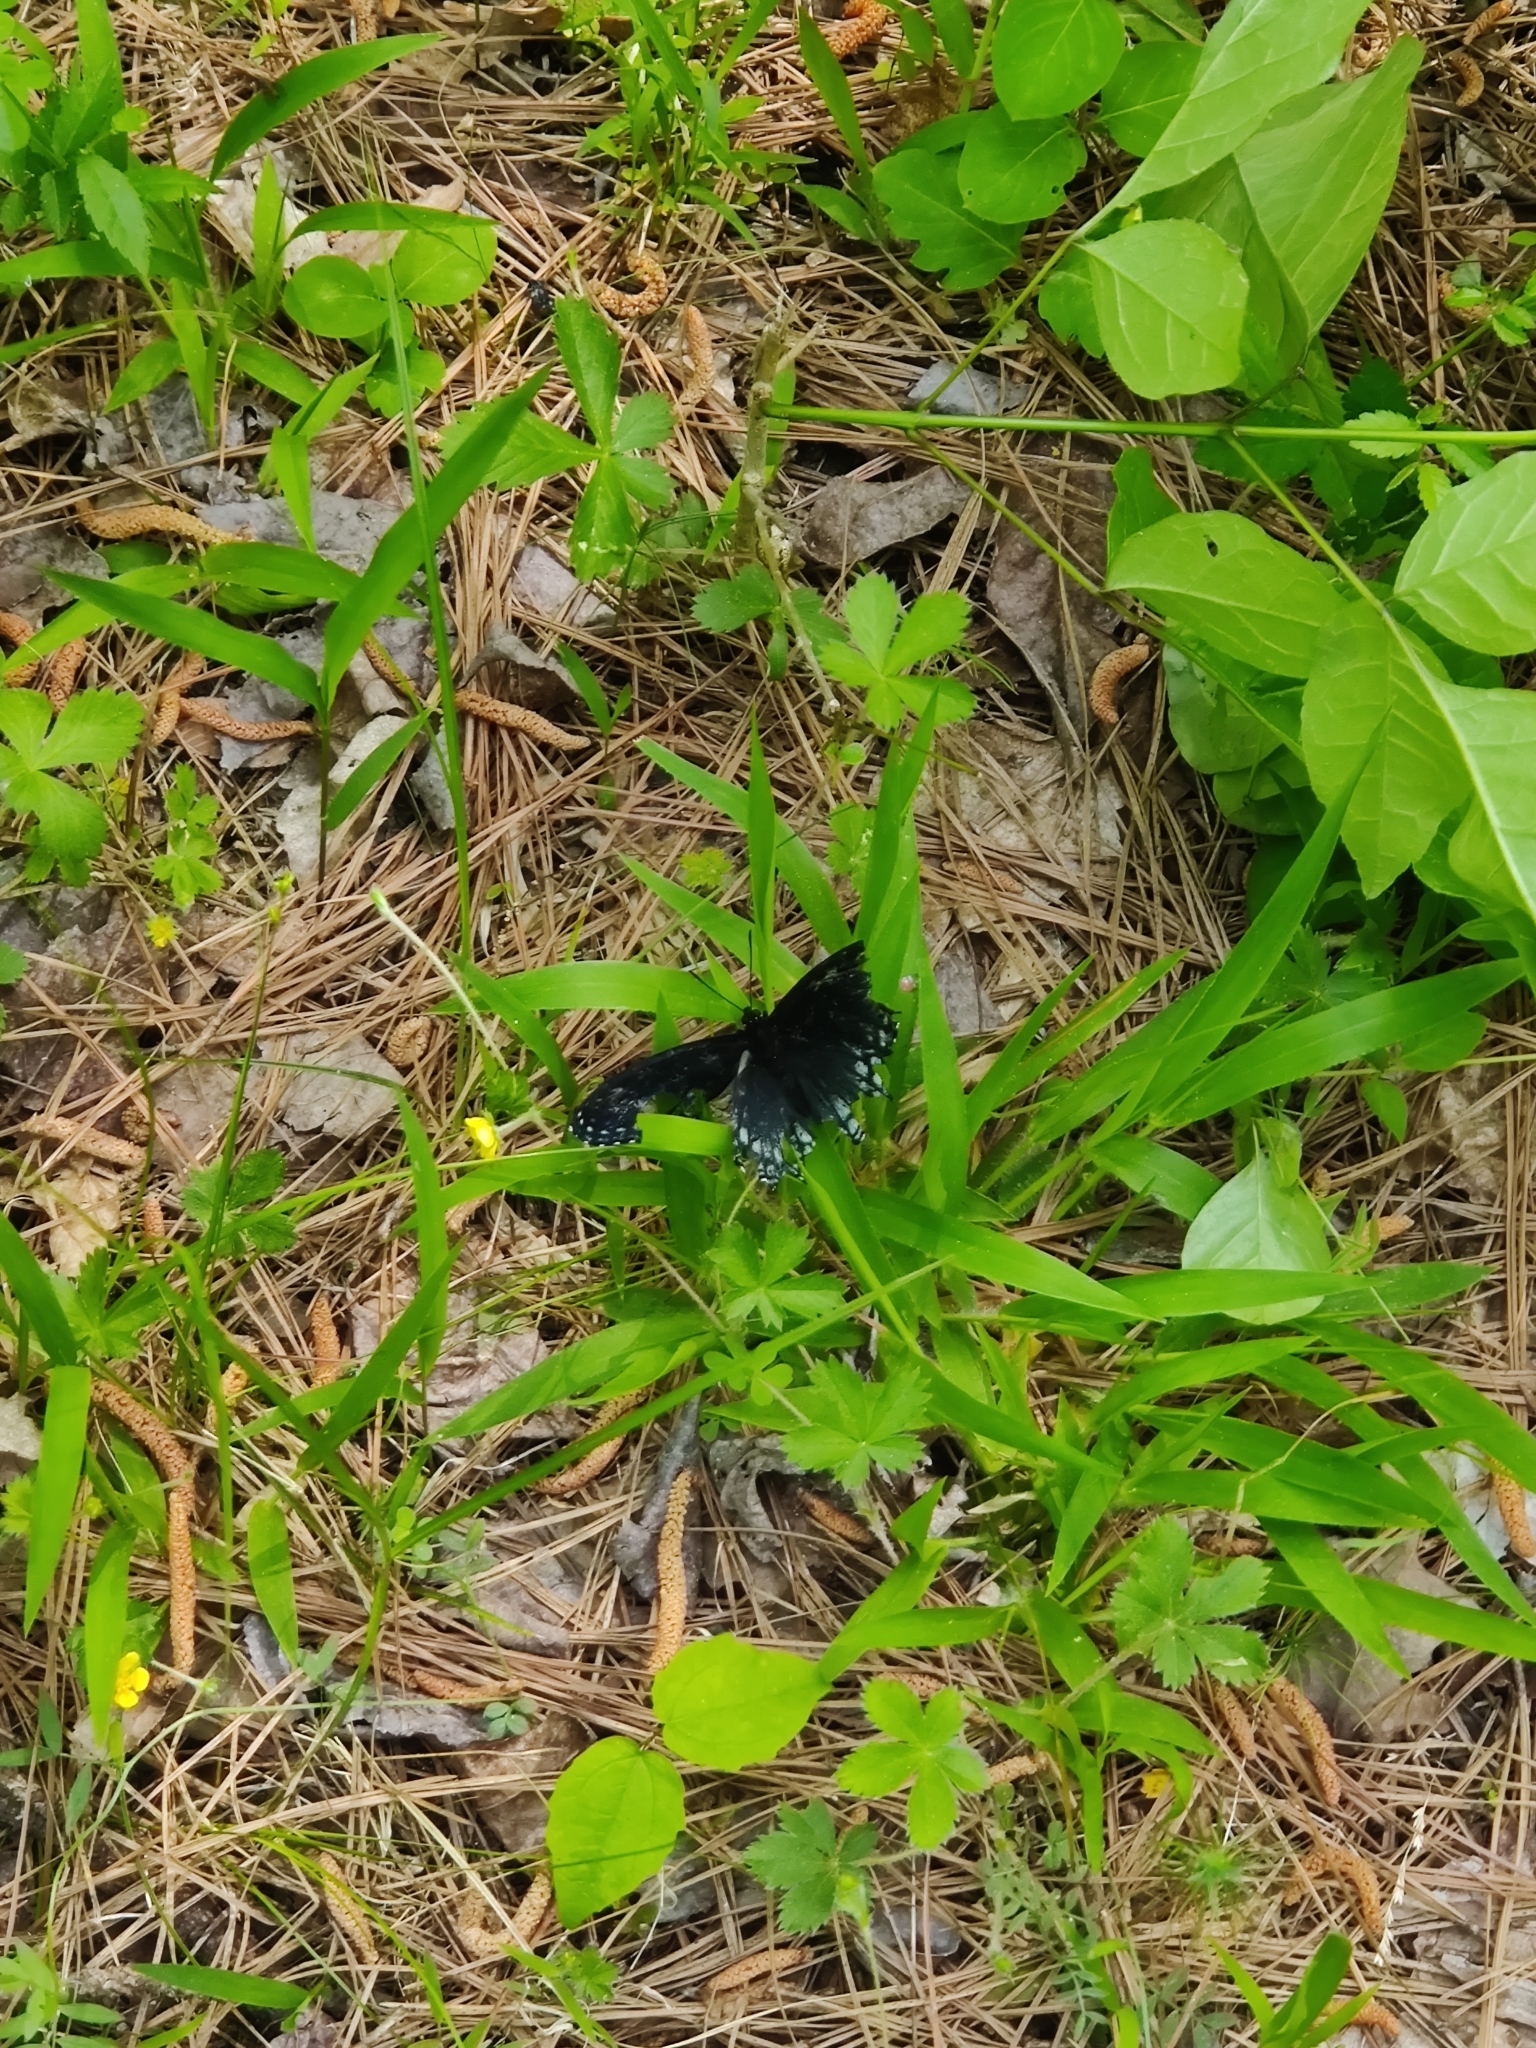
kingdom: Animalia
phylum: Arthropoda
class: Insecta
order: Lepidoptera
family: Nymphalidae
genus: Limenitis
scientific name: Limenitis astyanax
